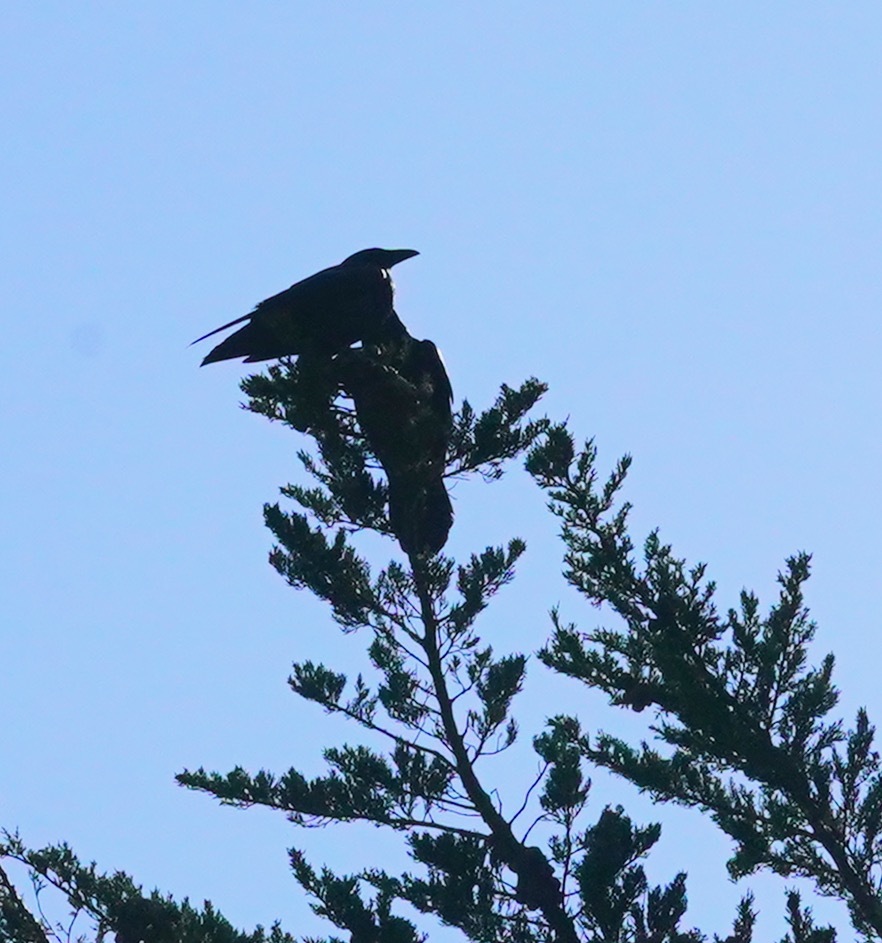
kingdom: Animalia
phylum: Chordata
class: Aves
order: Passeriformes
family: Corvidae
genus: Corvus
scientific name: Corvus corax
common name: Common raven
